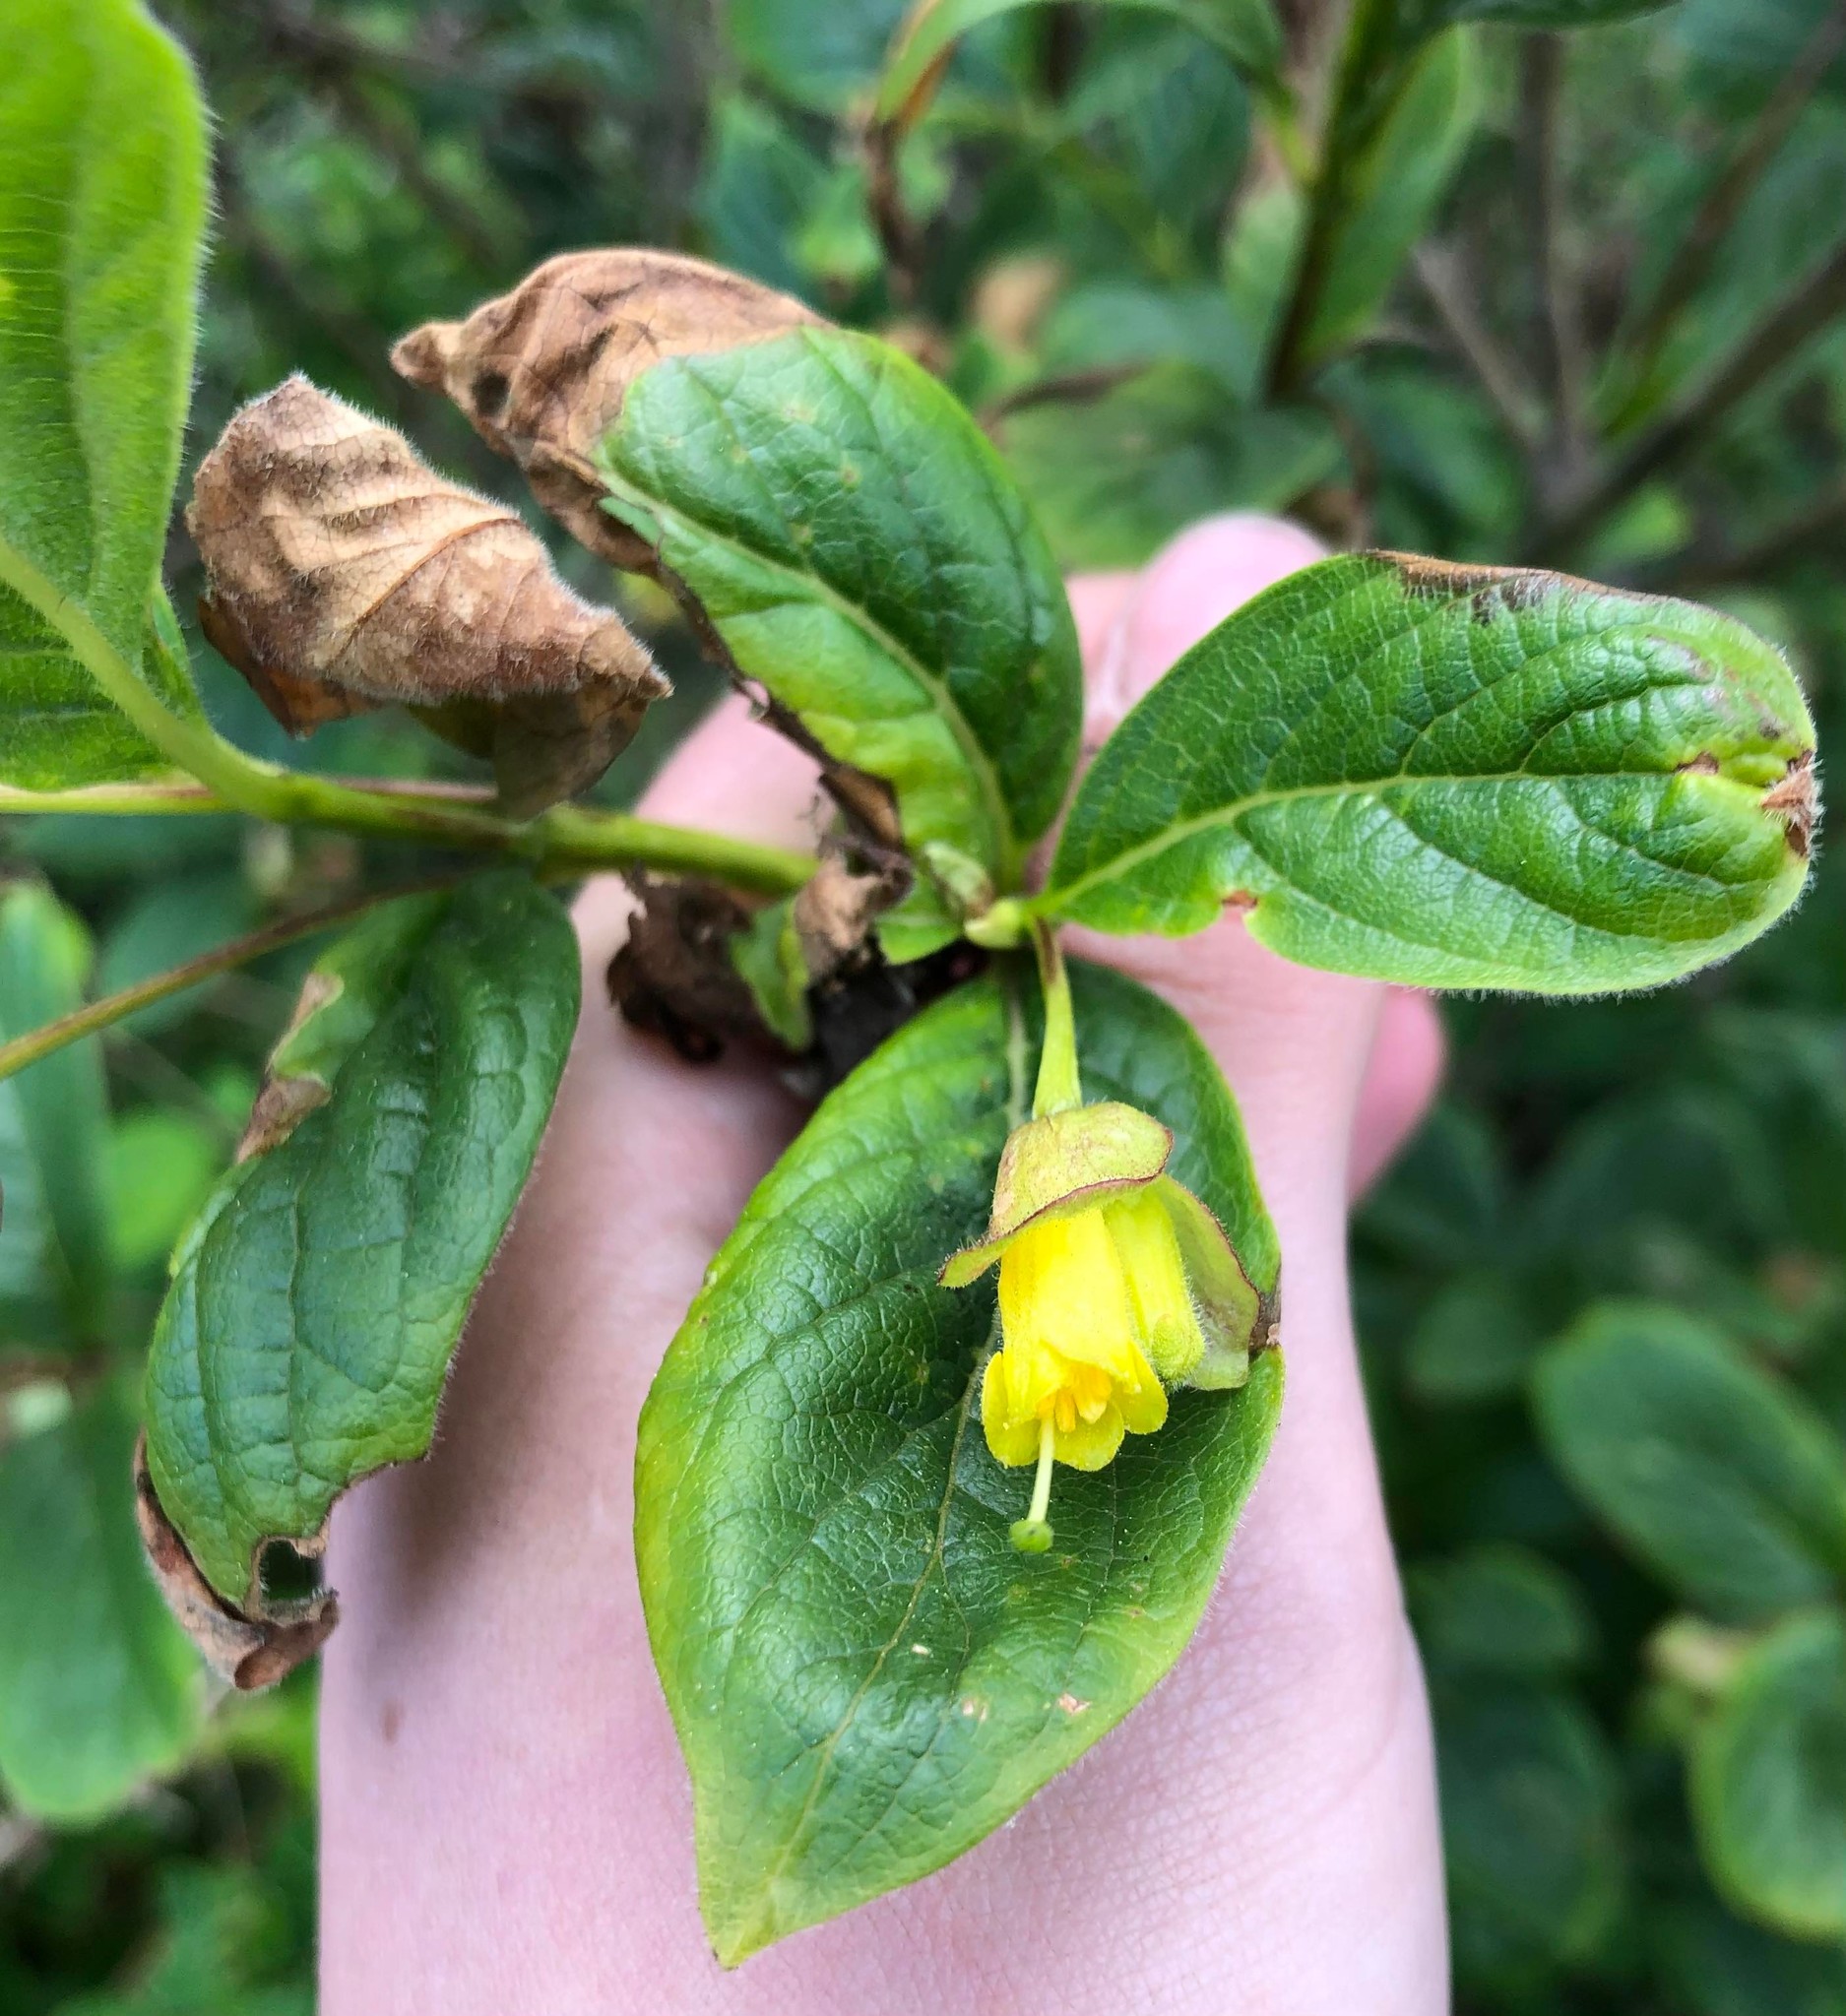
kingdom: Plantae
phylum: Tracheophyta
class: Magnoliopsida
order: Dipsacales
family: Caprifoliaceae
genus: Lonicera
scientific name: Lonicera involucrata
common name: Californian honeysuckle
